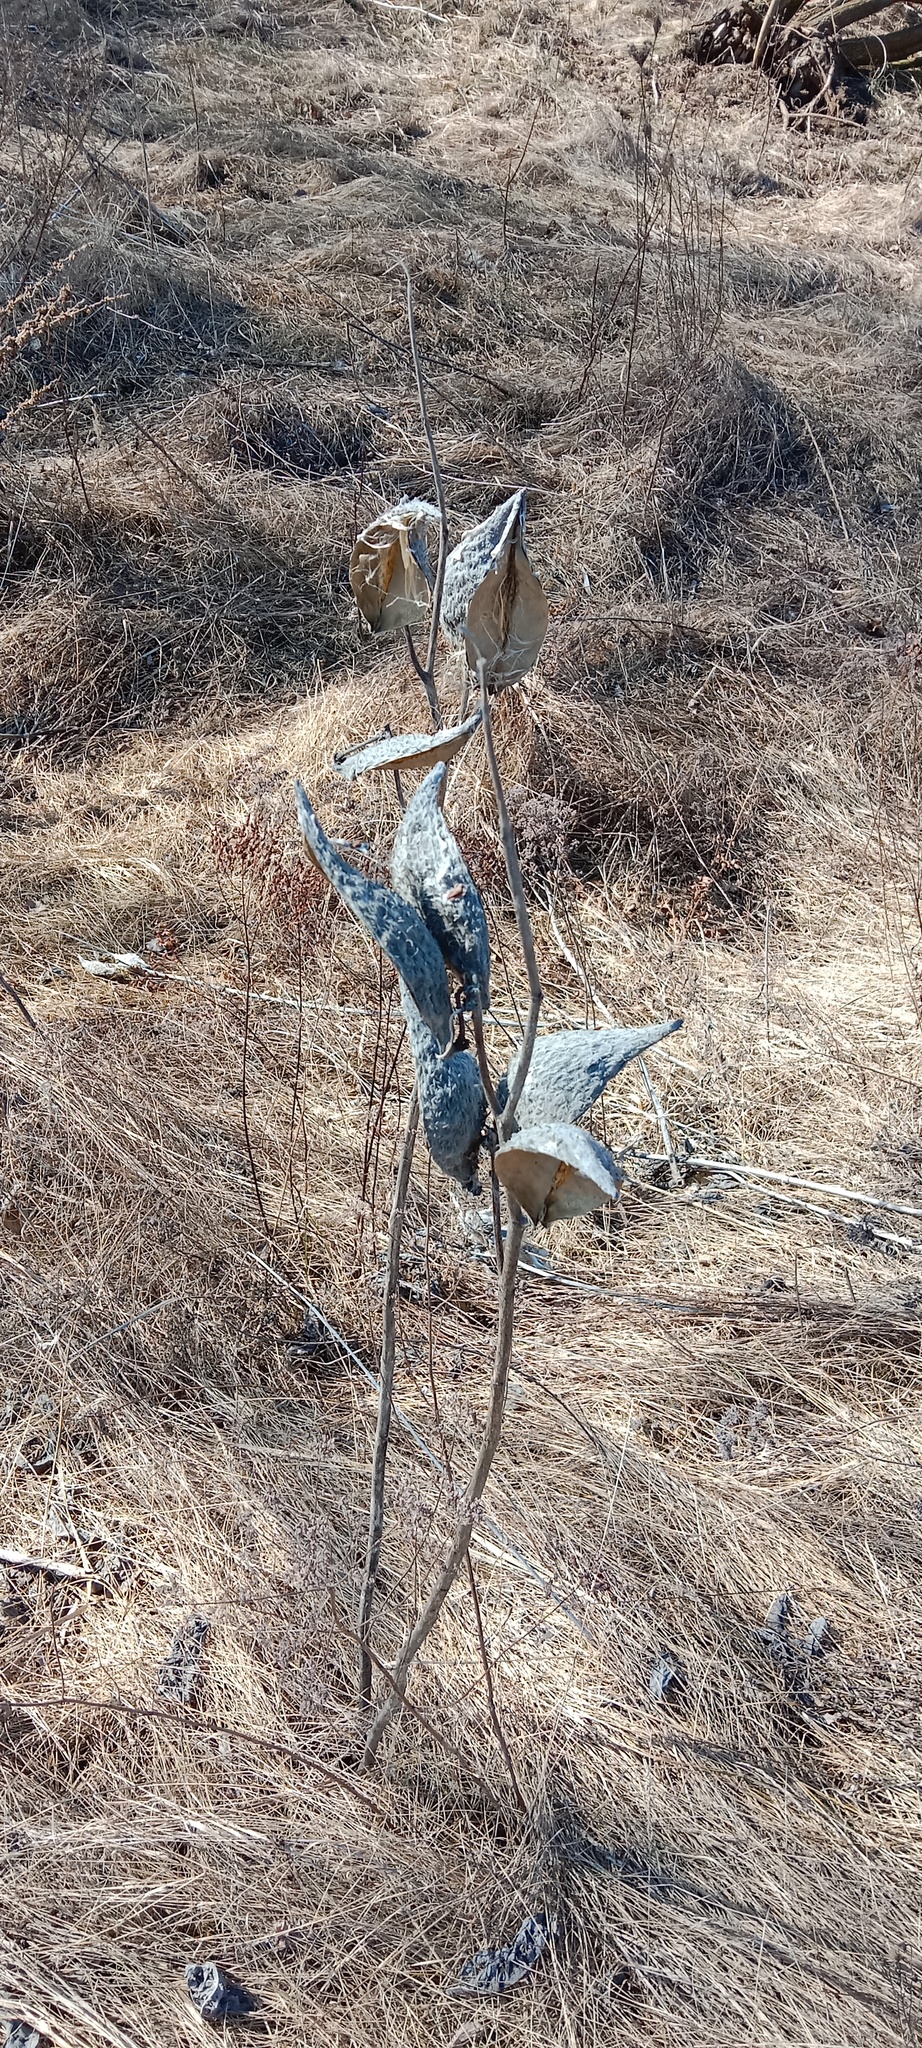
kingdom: Plantae
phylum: Tracheophyta
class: Magnoliopsida
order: Gentianales
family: Apocynaceae
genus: Asclepias
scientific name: Asclepias syriaca
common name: Common milkweed
